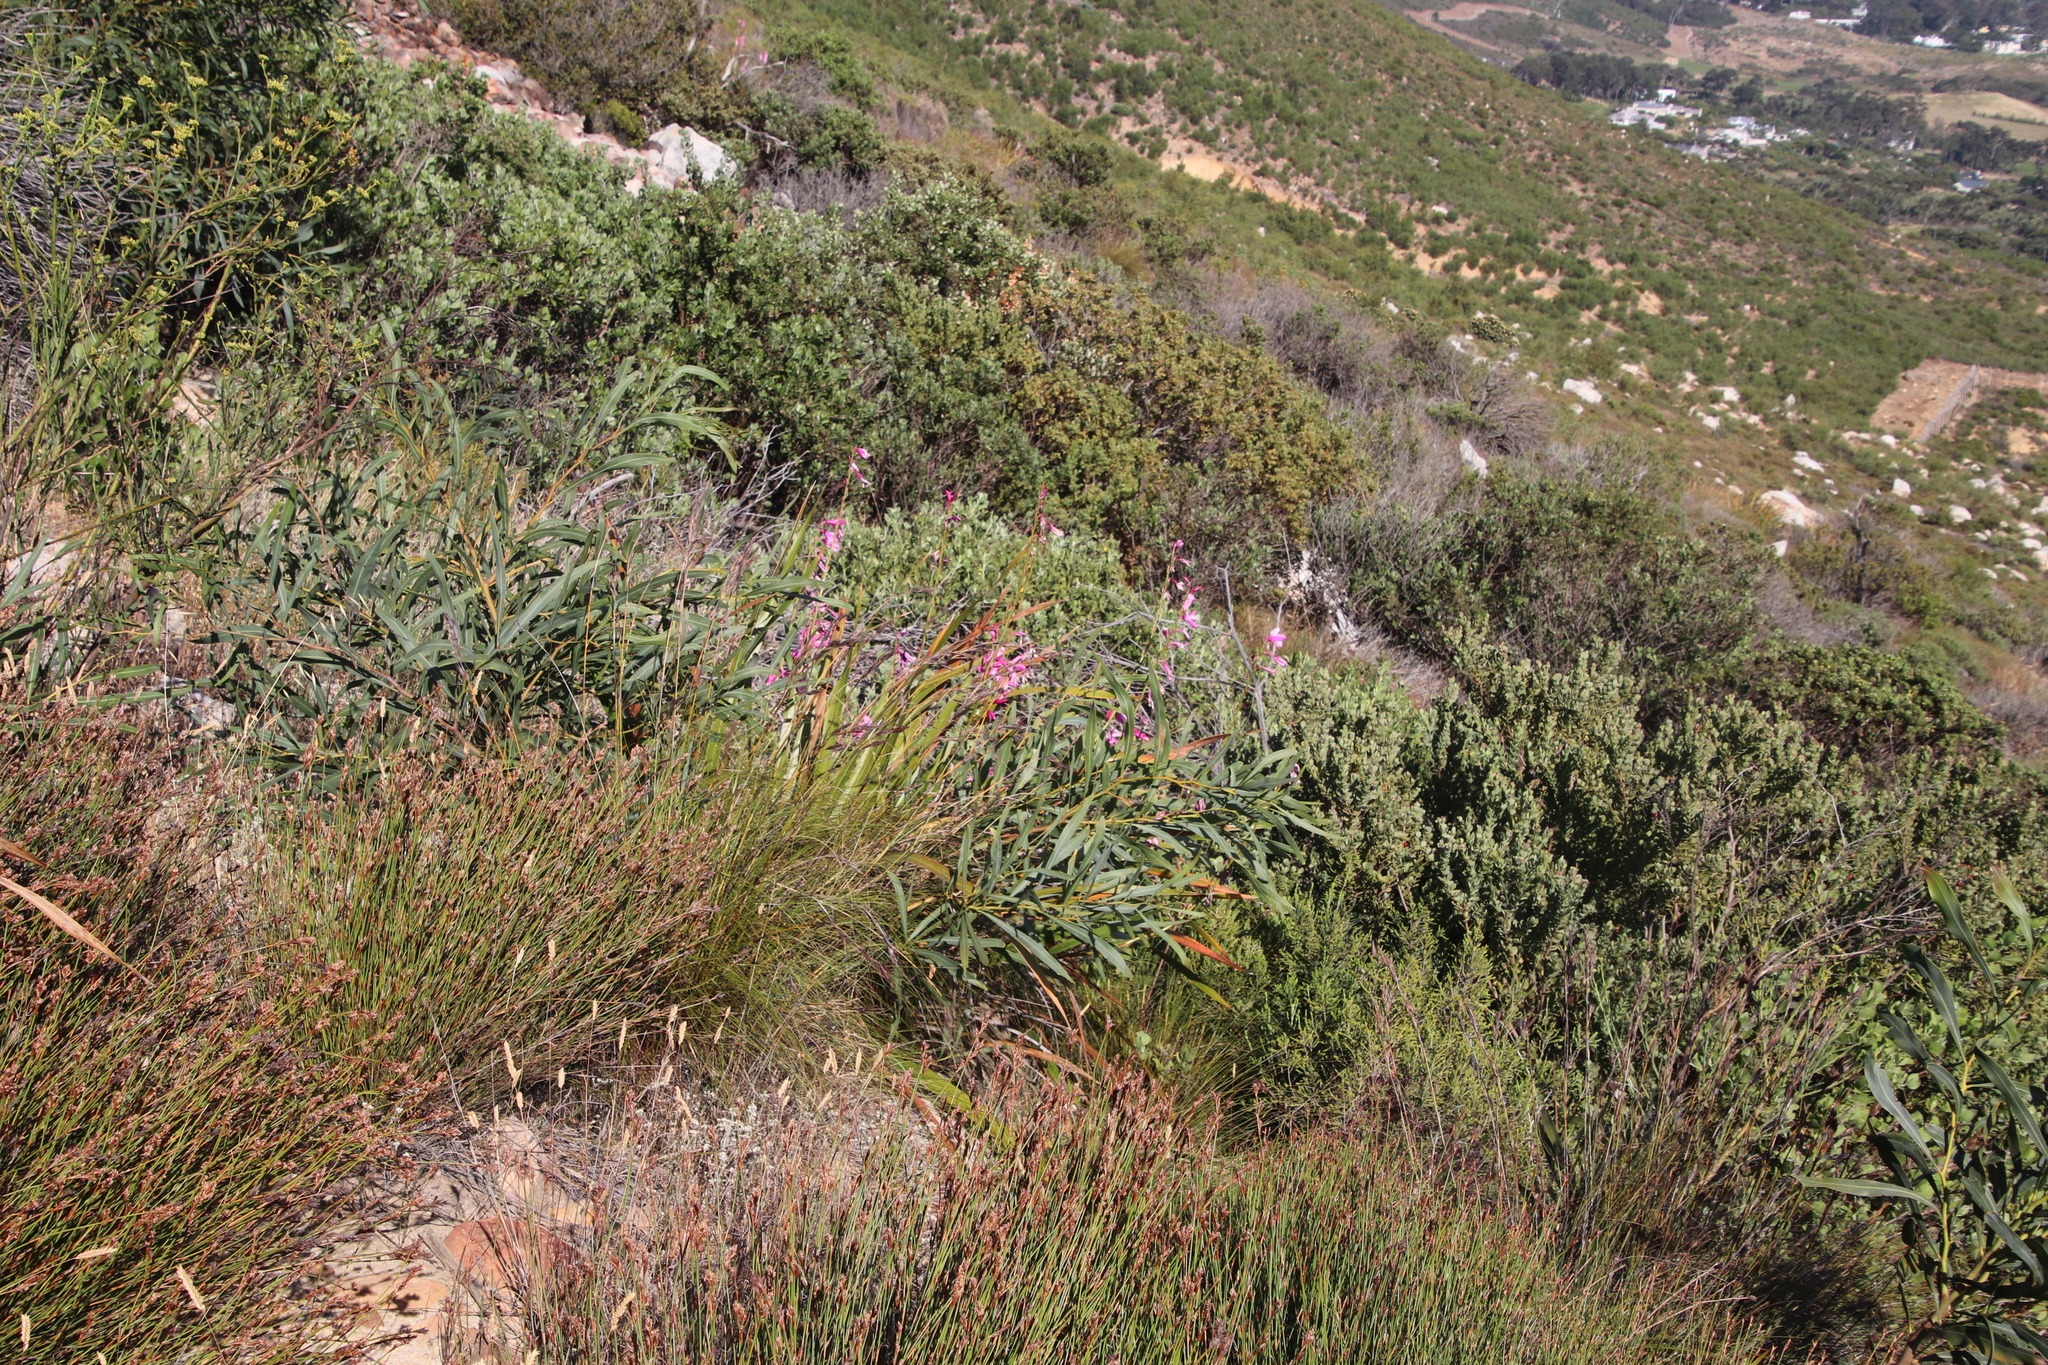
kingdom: Plantae
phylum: Tracheophyta
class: Liliopsida
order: Asparagales
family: Iridaceae
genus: Watsonia
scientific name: Watsonia borbonica
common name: Bugle-lily
